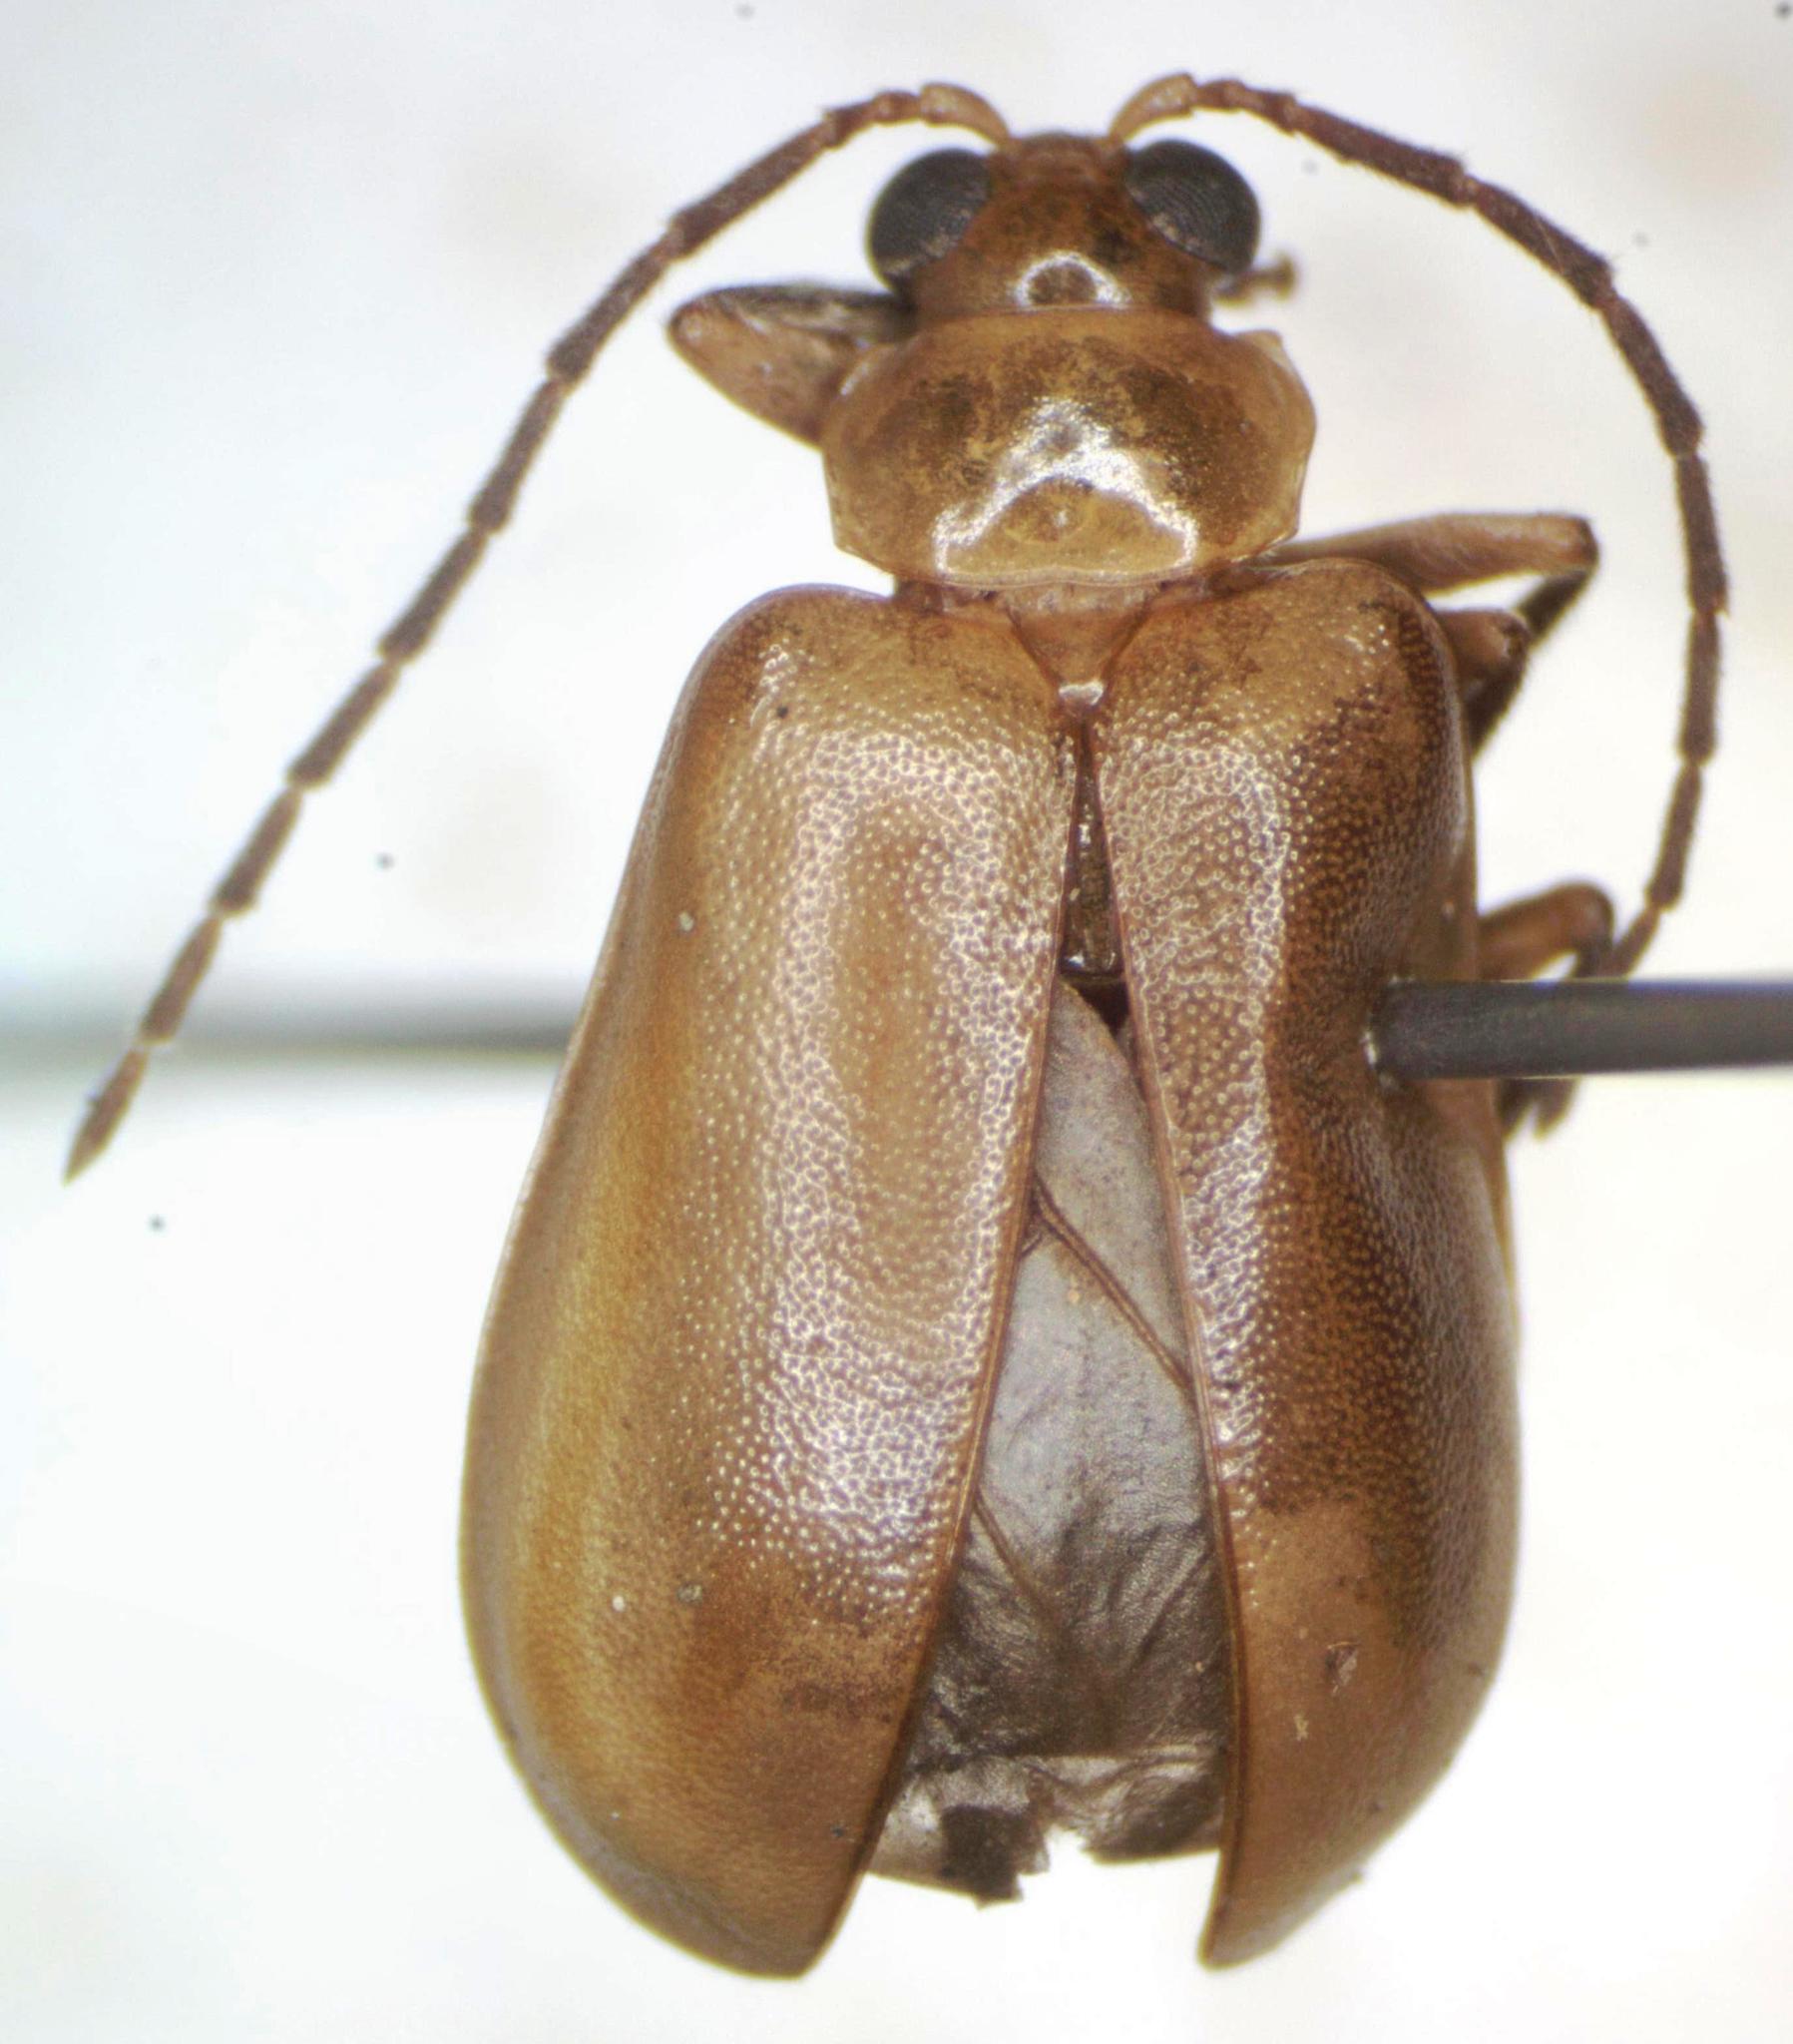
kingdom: Animalia
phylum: Arthropoda
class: Insecta
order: Coleoptera
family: Chrysomelidae
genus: Pyesia
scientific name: Pyesia detrita
